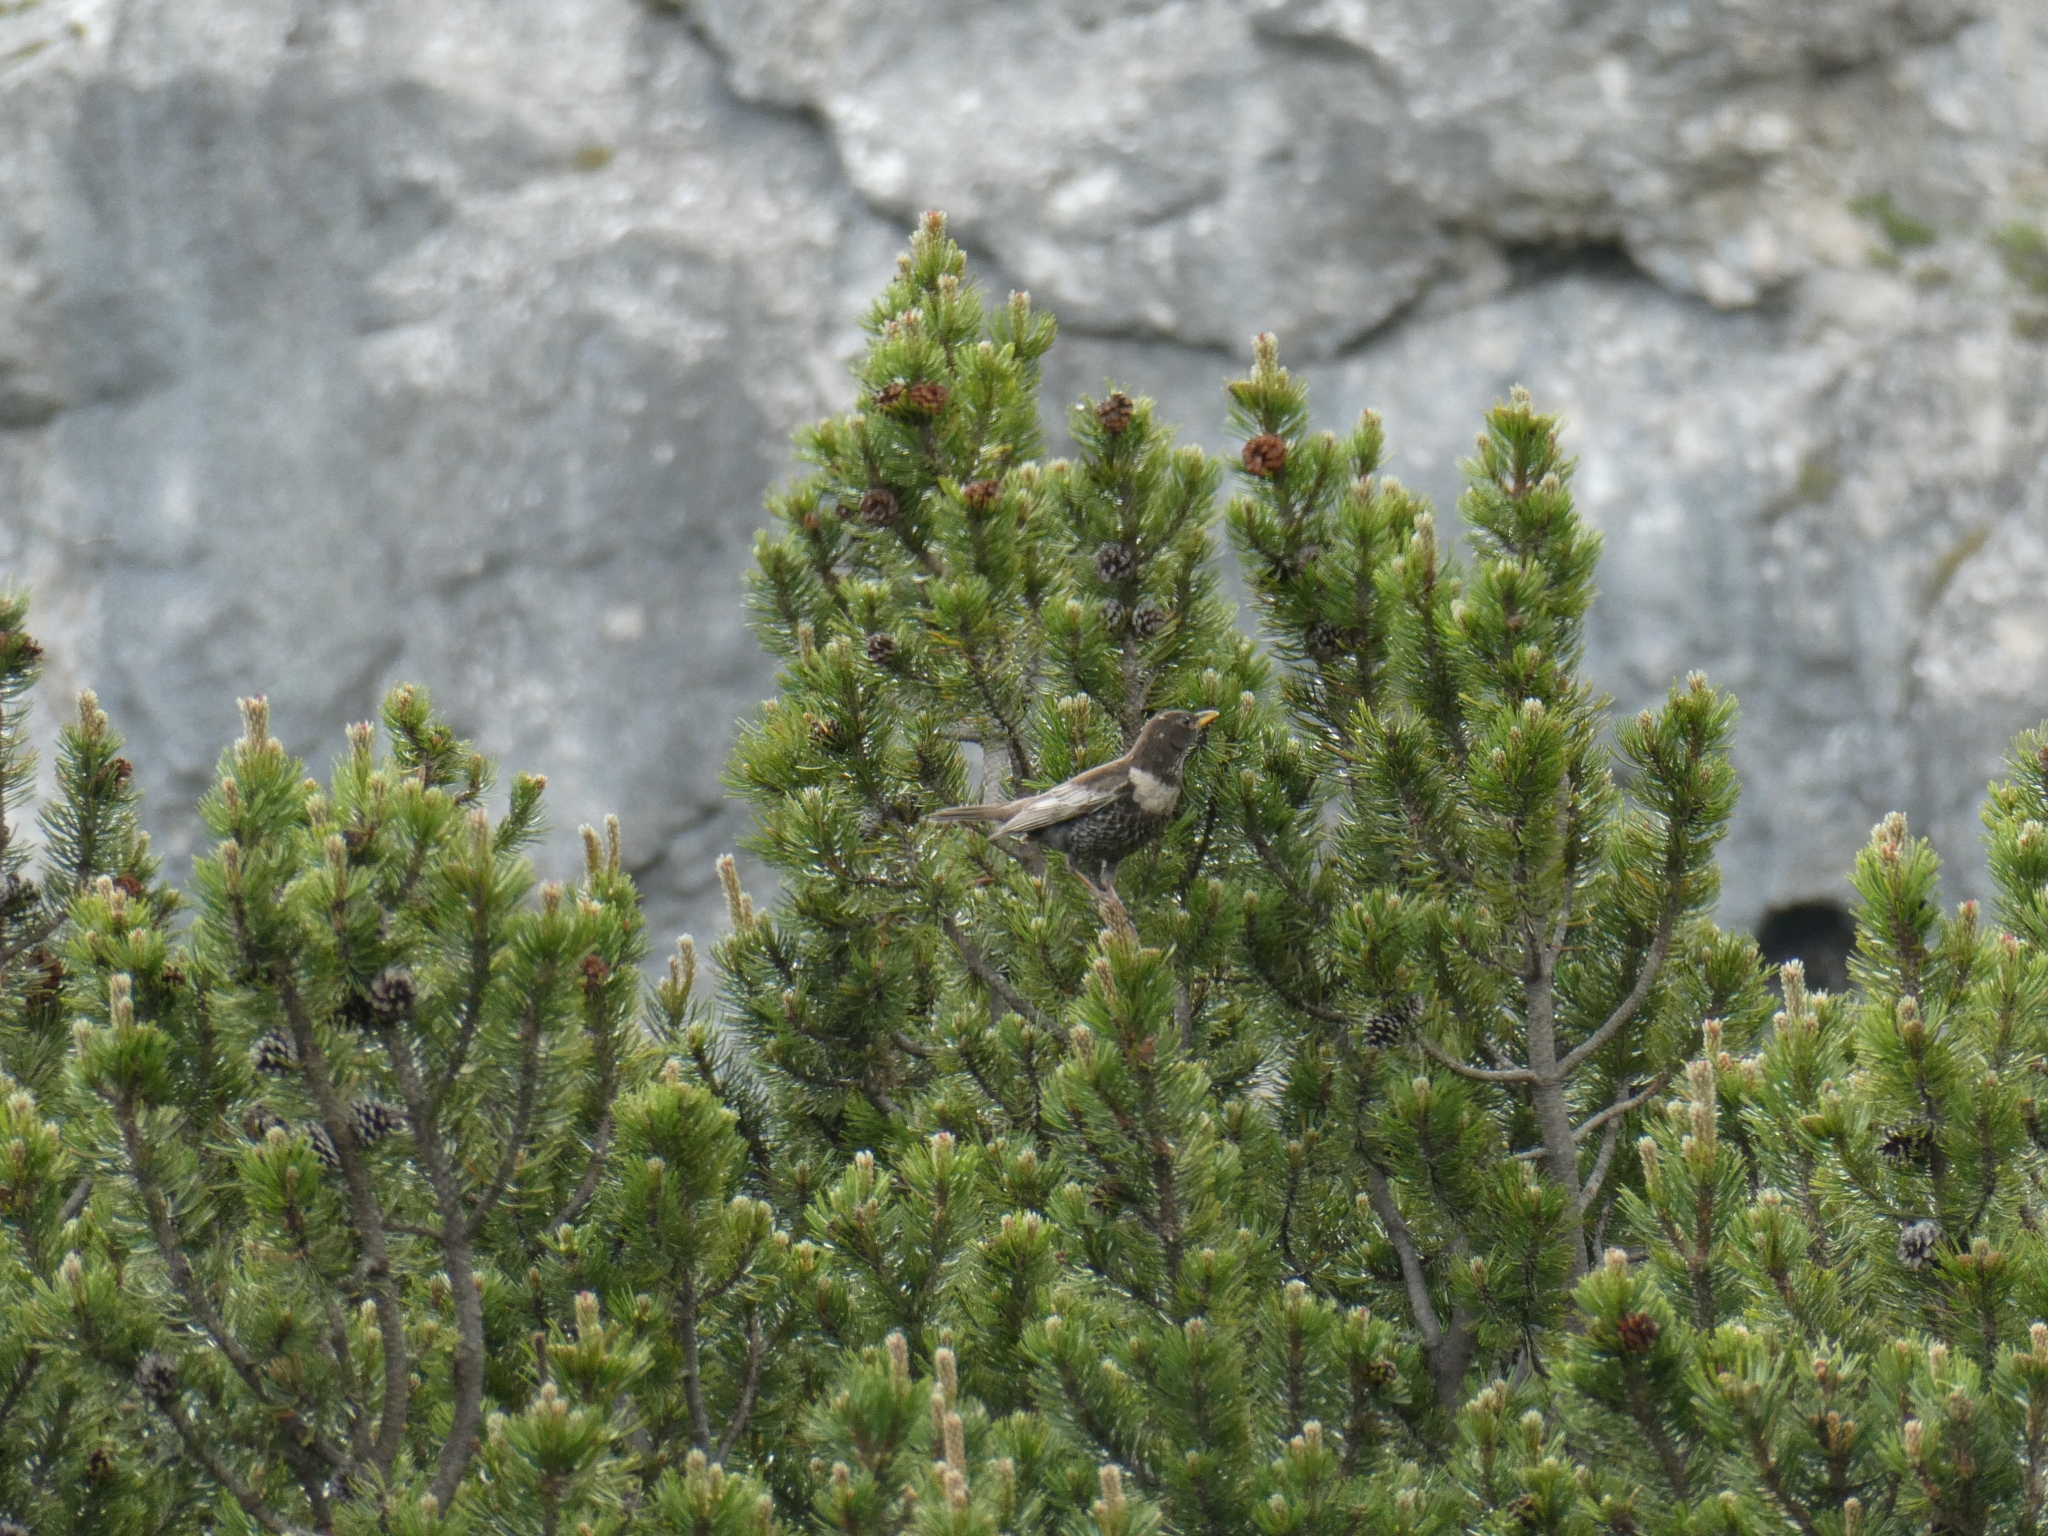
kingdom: Animalia
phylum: Chordata
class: Aves
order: Passeriformes
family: Turdidae
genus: Turdus
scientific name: Turdus torquatus
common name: Ring ouzel
